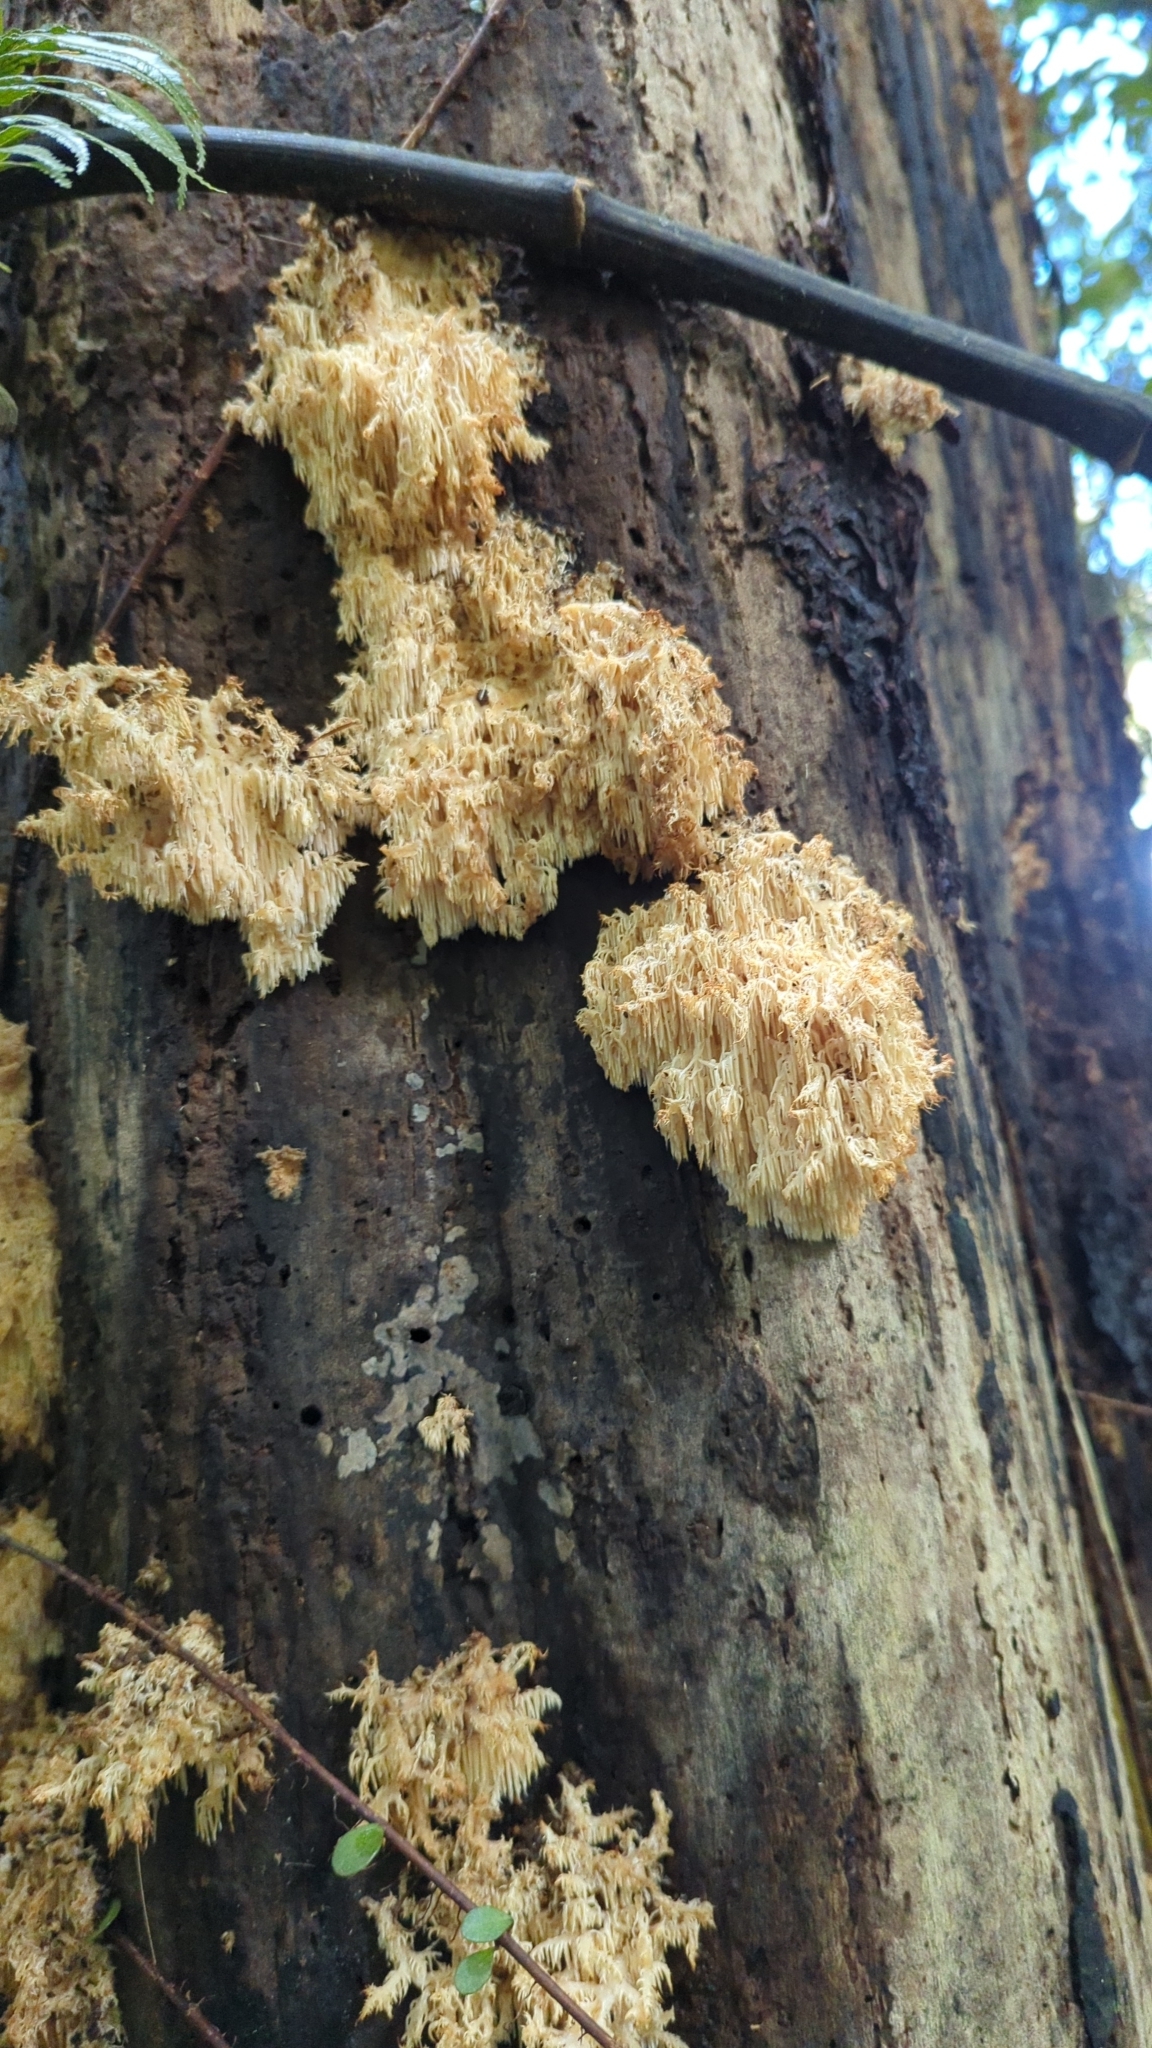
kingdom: Fungi
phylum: Basidiomycota
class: Agaricomycetes
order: Russulales
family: Hericiaceae
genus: Hericium
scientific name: Hericium novae-zealandiae
